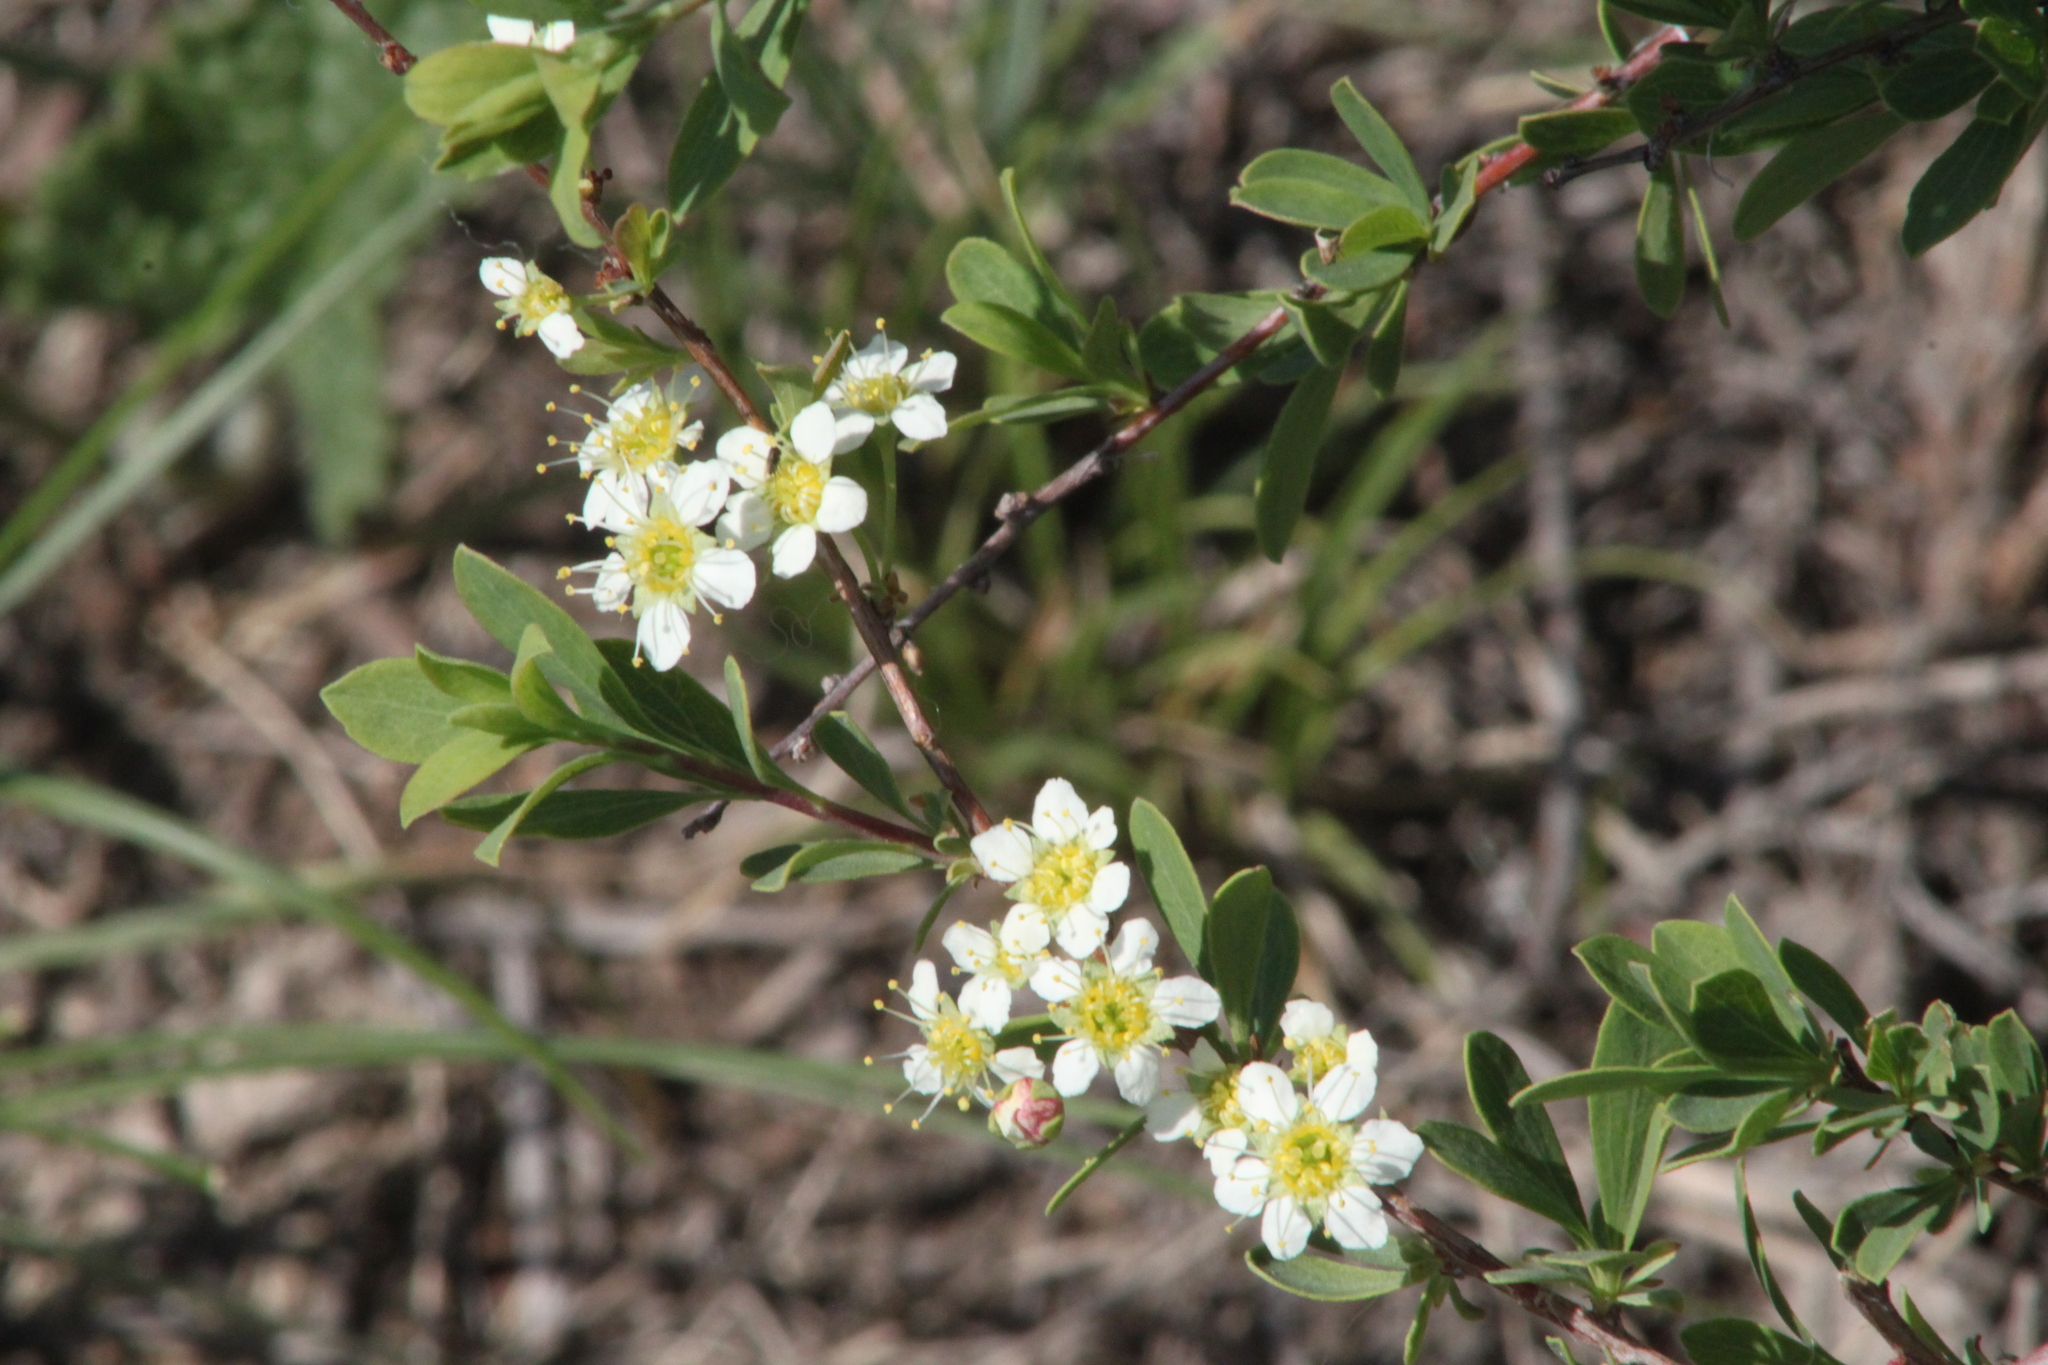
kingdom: Plantae
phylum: Tracheophyta
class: Magnoliopsida
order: Rosales
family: Rosaceae
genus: Spiraea
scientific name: Spiraea hypericifolia
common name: Iberian spirea
